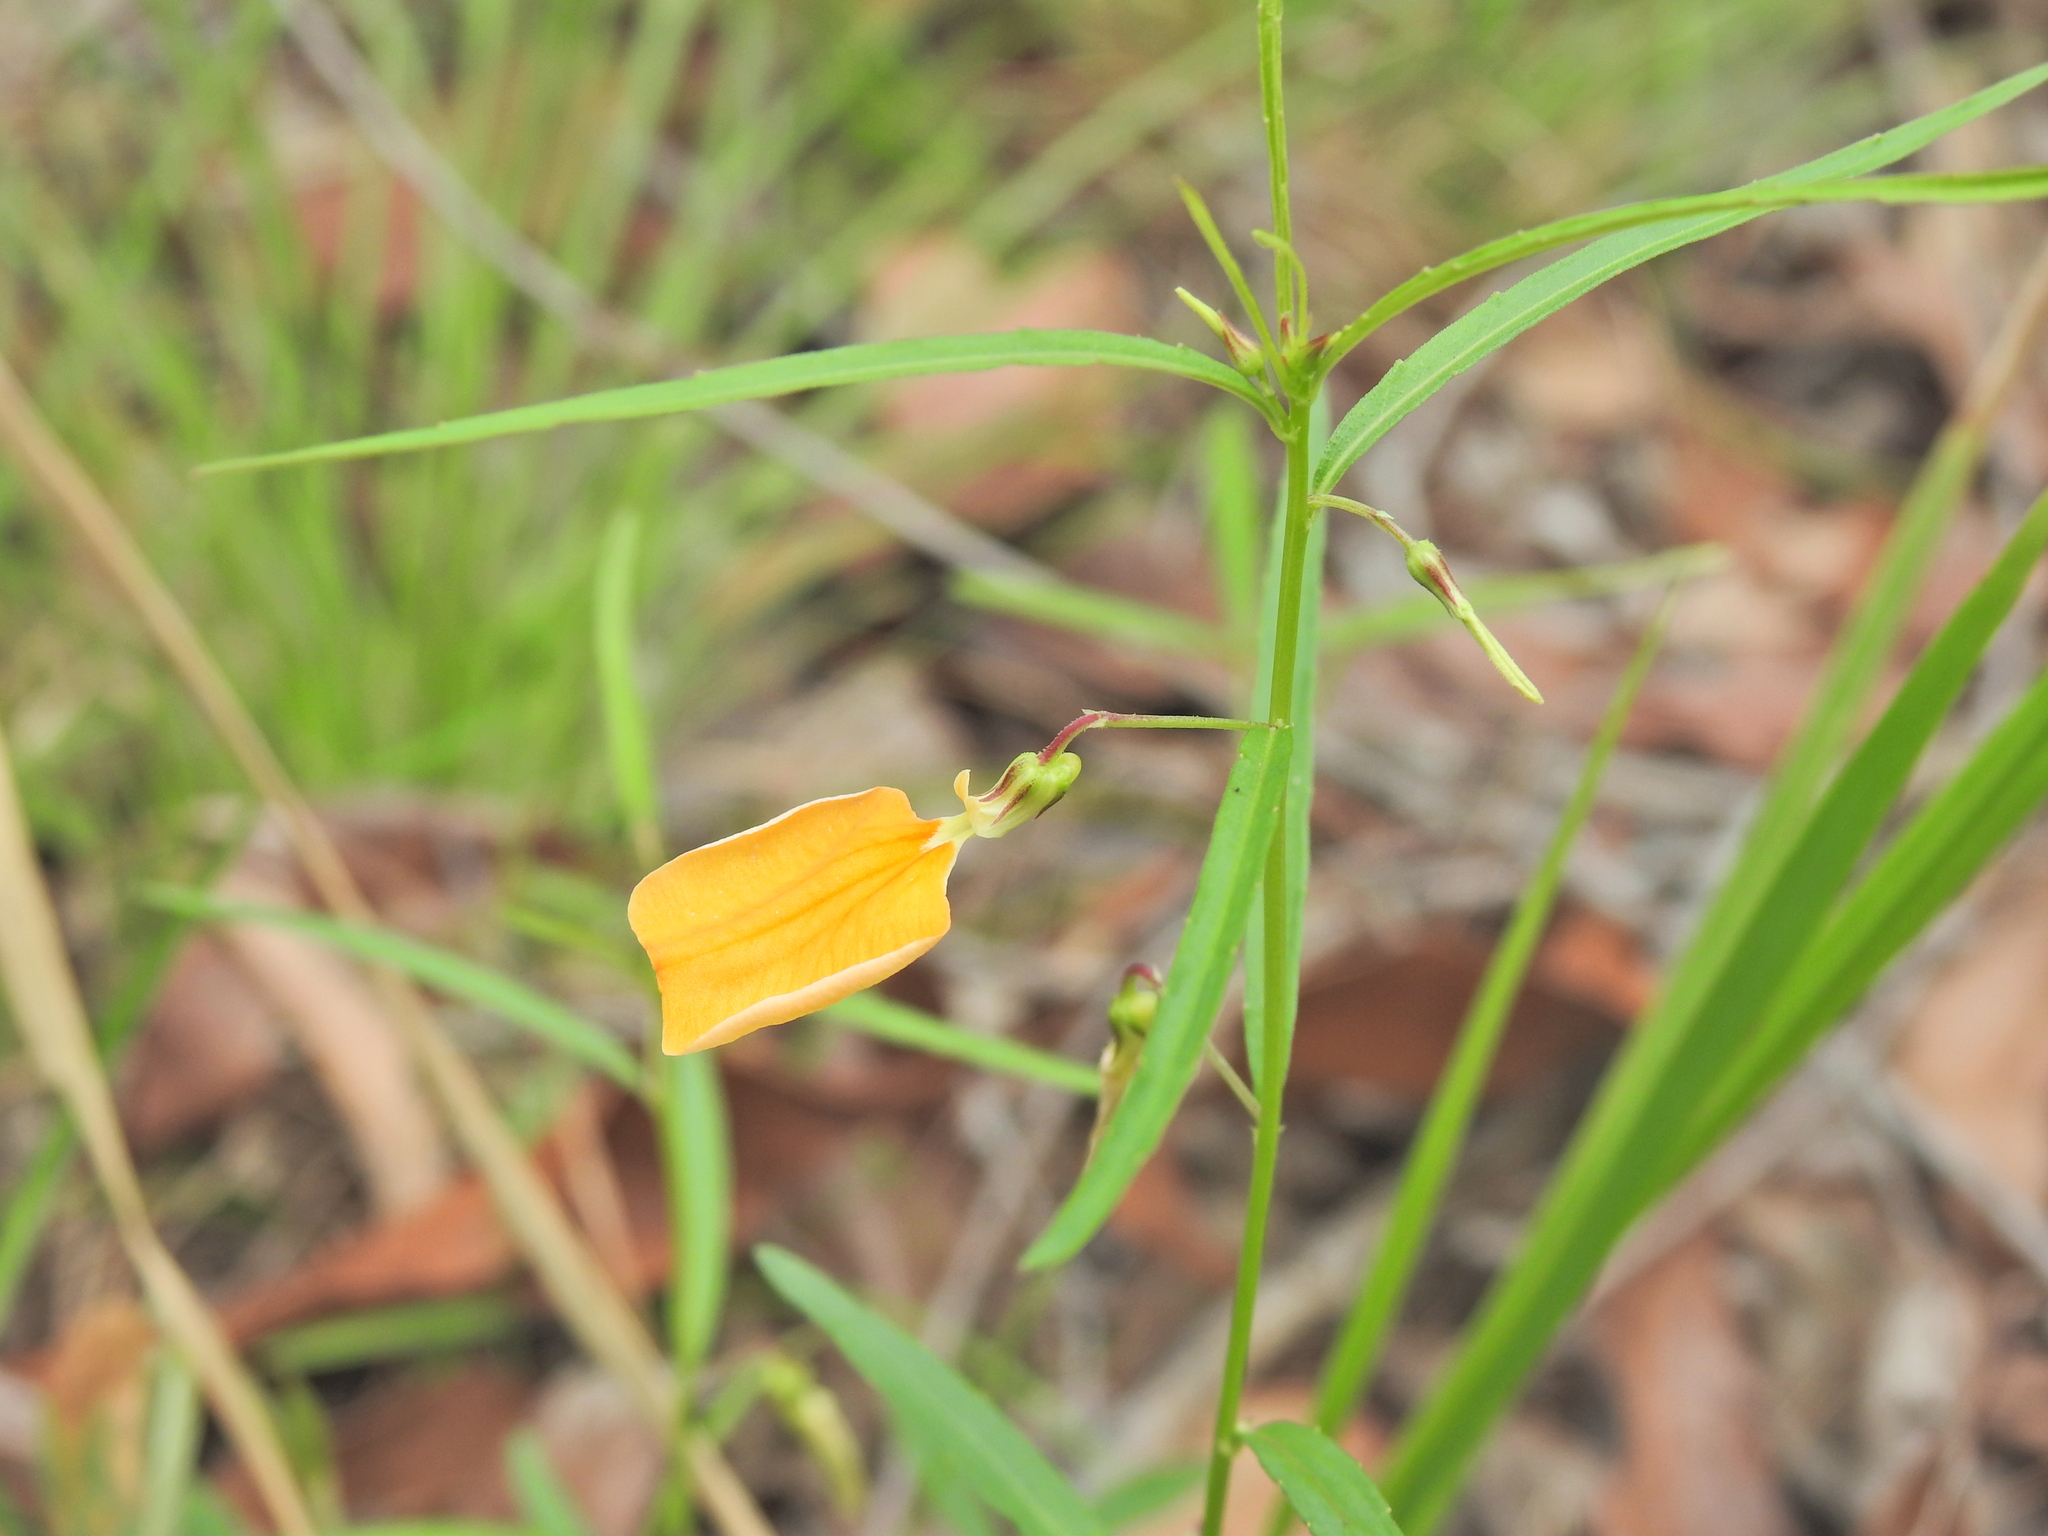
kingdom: Plantae
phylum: Tracheophyta
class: Magnoliopsida
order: Malpighiales
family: Violaceae
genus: Pigea
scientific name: Pigea stellarioides
